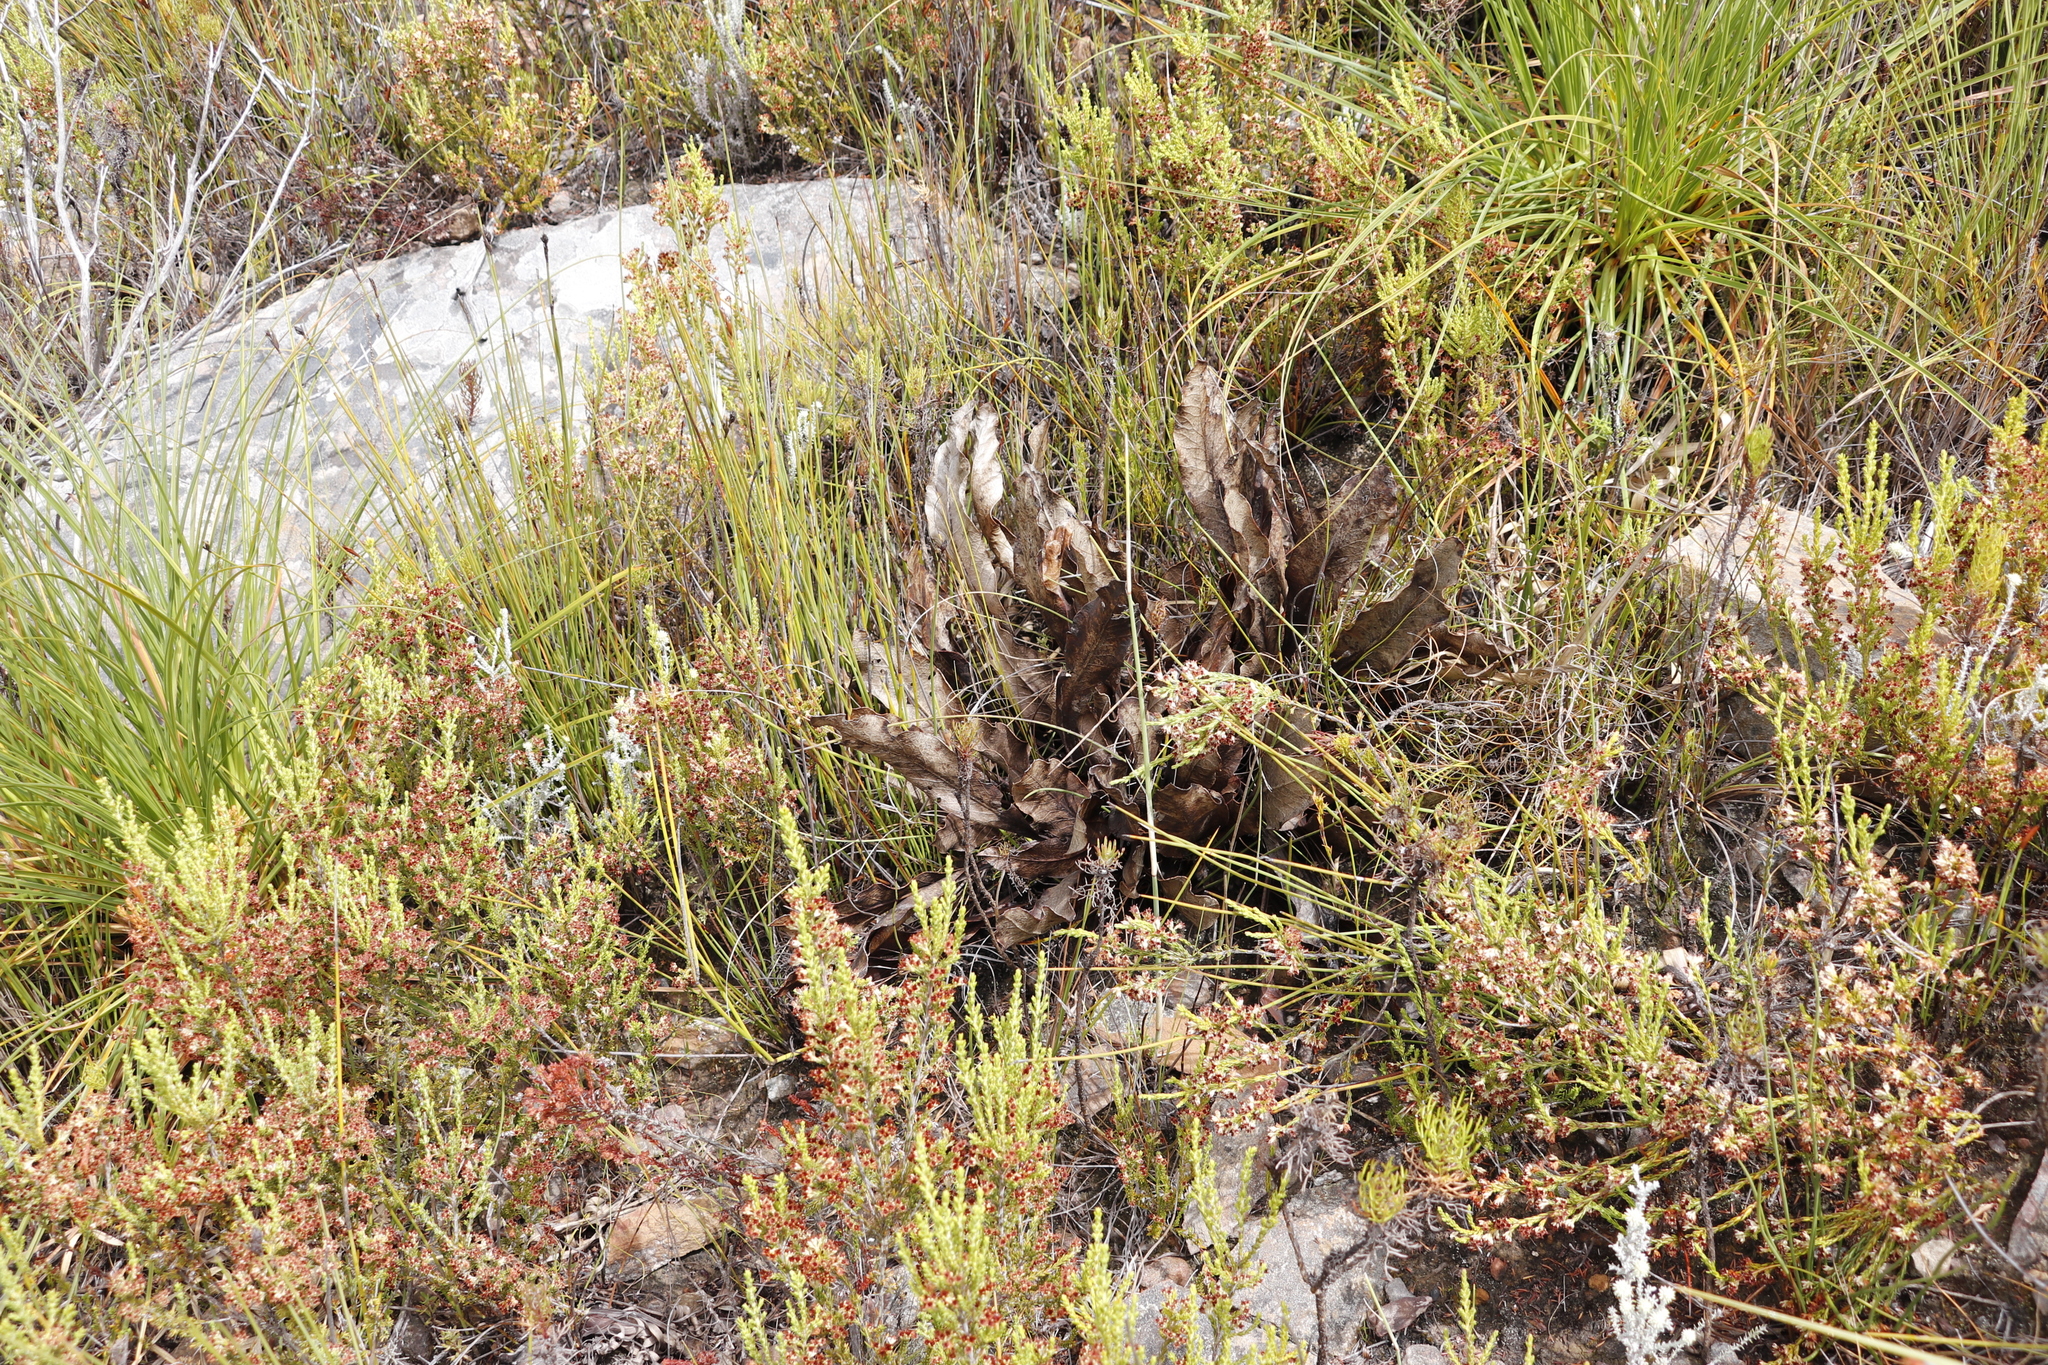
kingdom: Plantae
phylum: Tracheophyta
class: Magnoliopsida
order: Proteales
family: Proteaceae
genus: Protea
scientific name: Protea scolopendriifolia
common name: Harts-tongue-fern sugarbush
